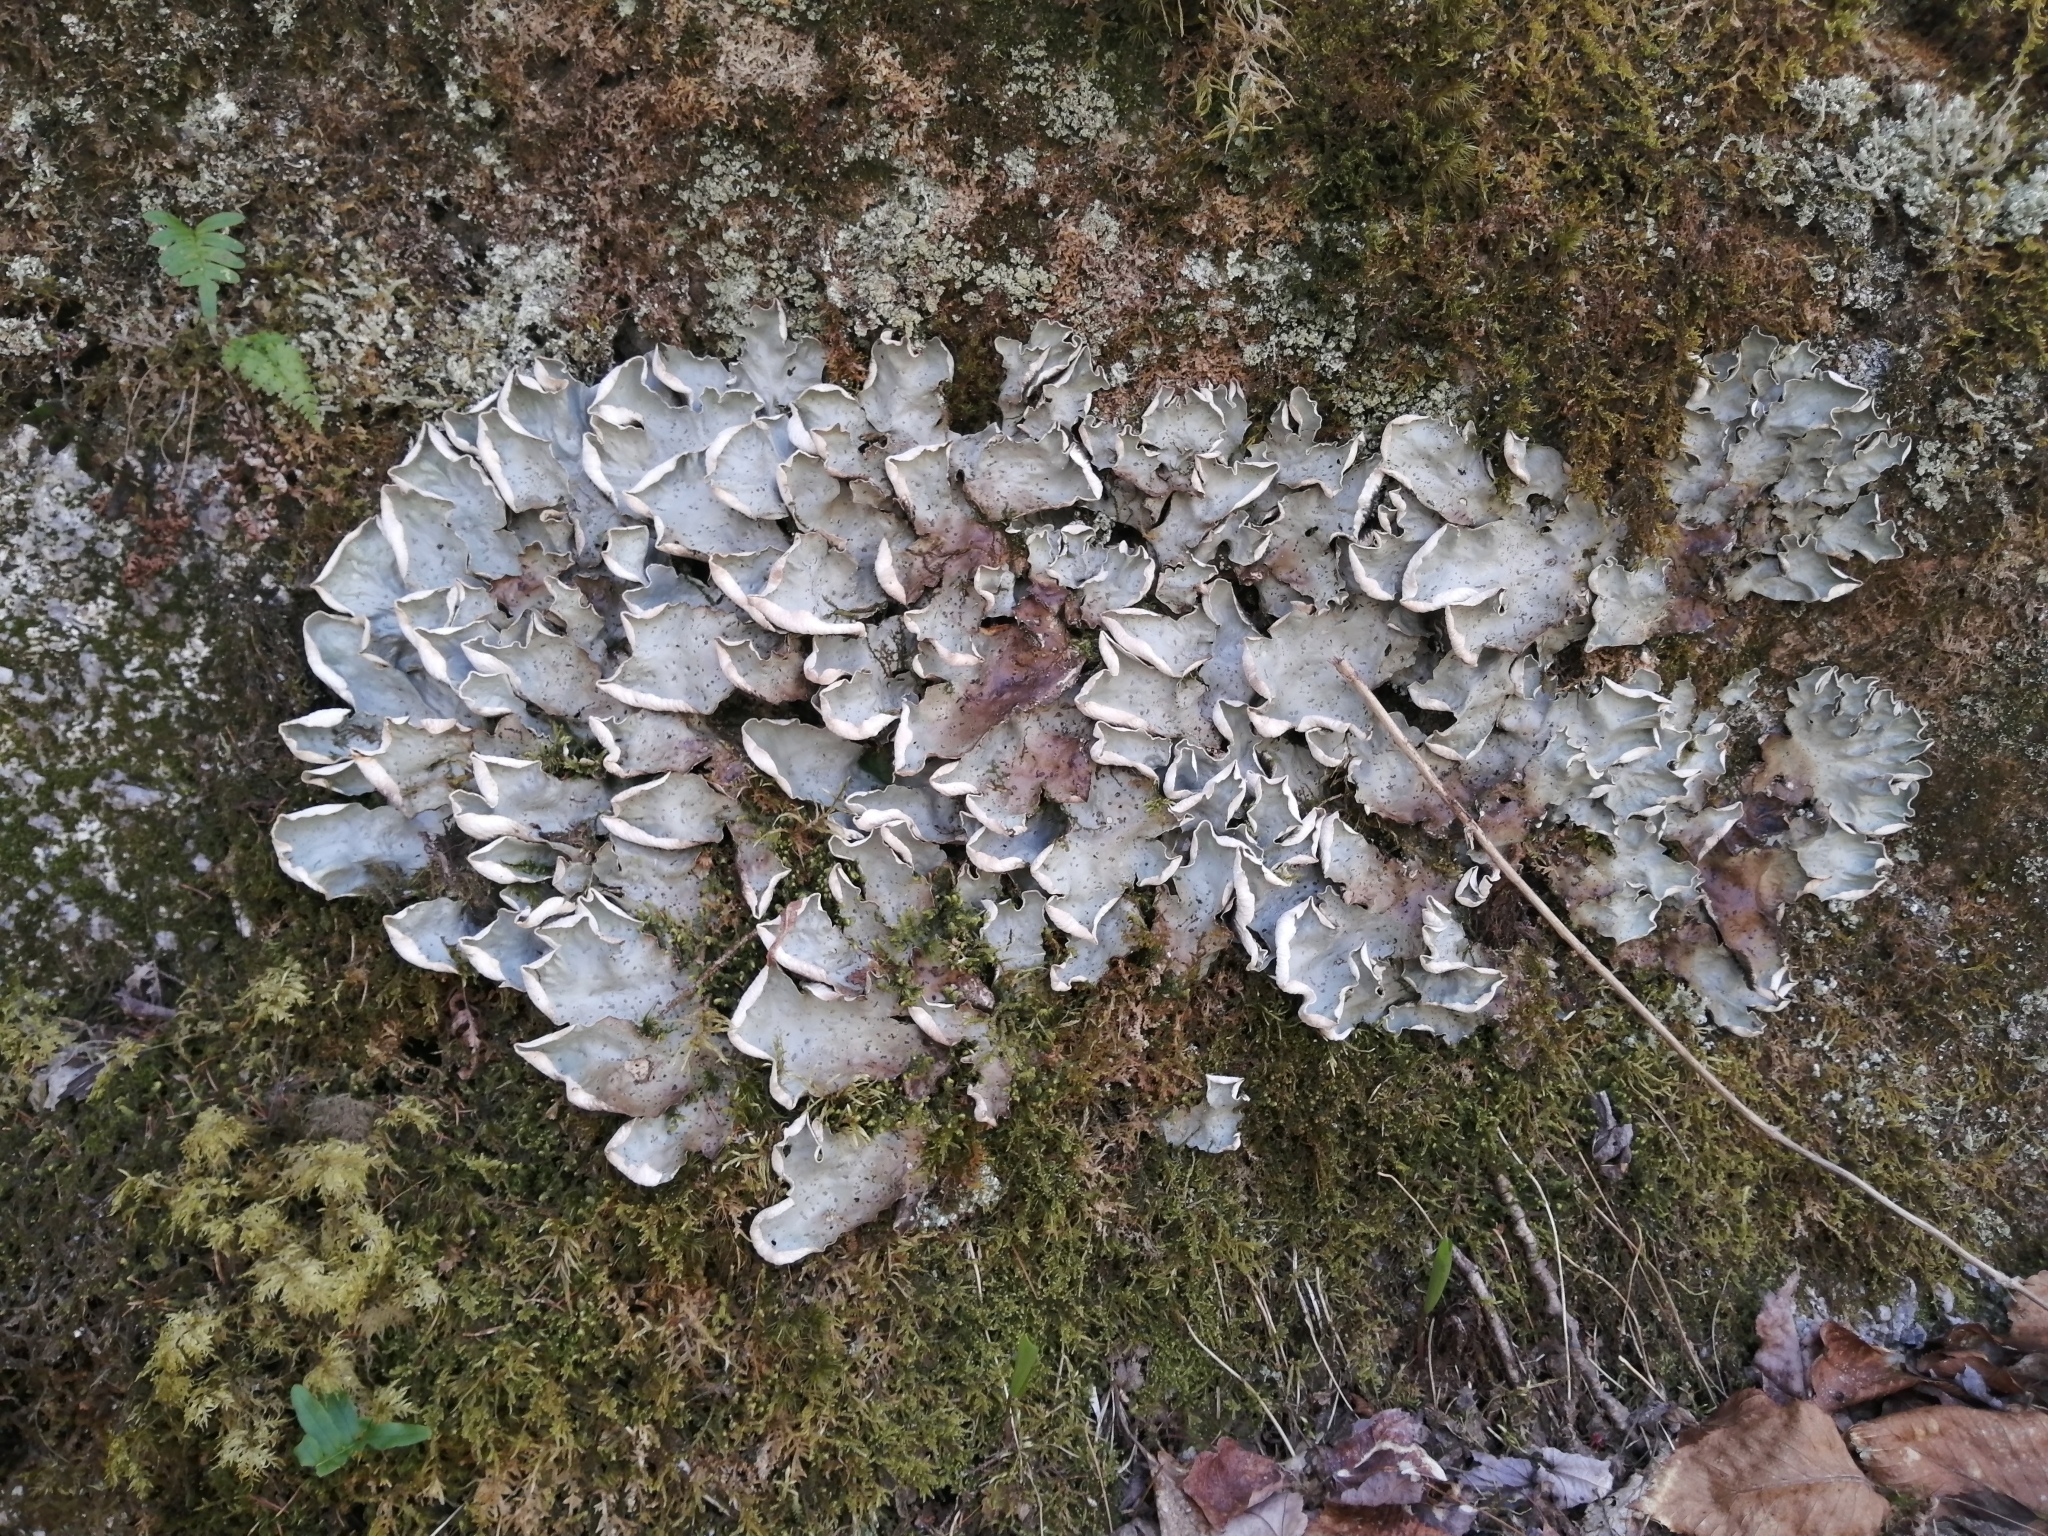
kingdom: Fungi
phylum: Ascomycota
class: Lecanoromycetes
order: Peltigerales
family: Peltigeraceae
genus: Peltigera
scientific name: Peltigera aphthosa
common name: Common freckle pelt lichen
